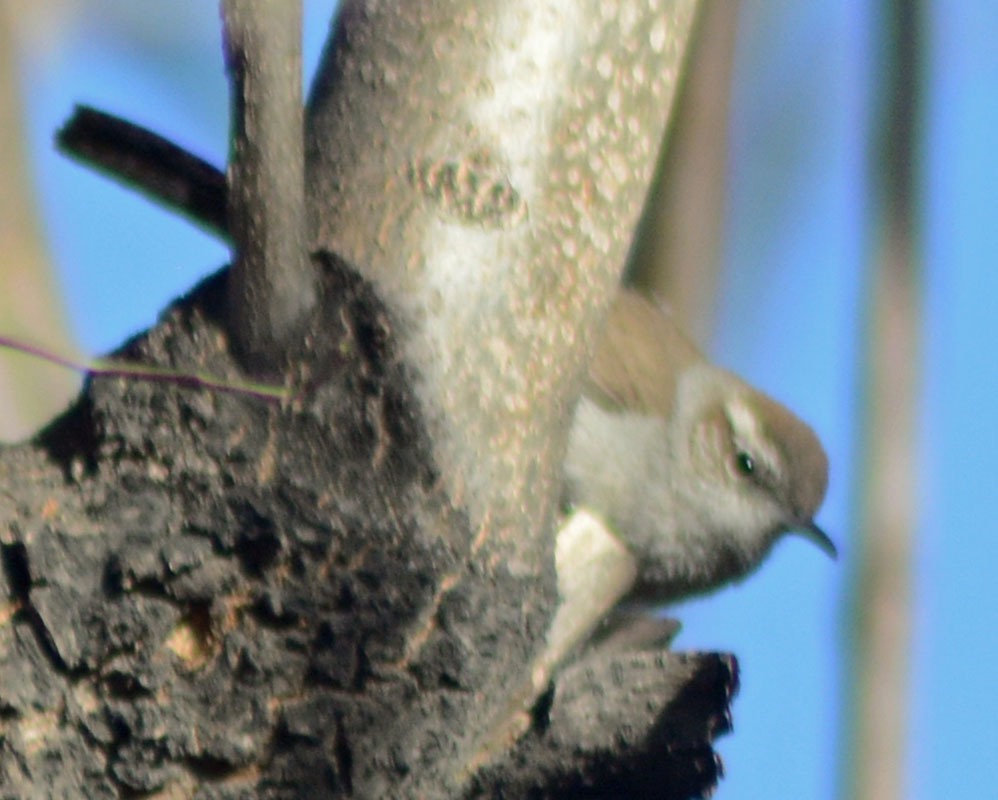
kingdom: Animalia
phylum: Chordata
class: Aves
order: Passeriformes
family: Troglodytidae
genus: Thryomanes
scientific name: Thryomanes bewickii
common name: Bewick's wren
